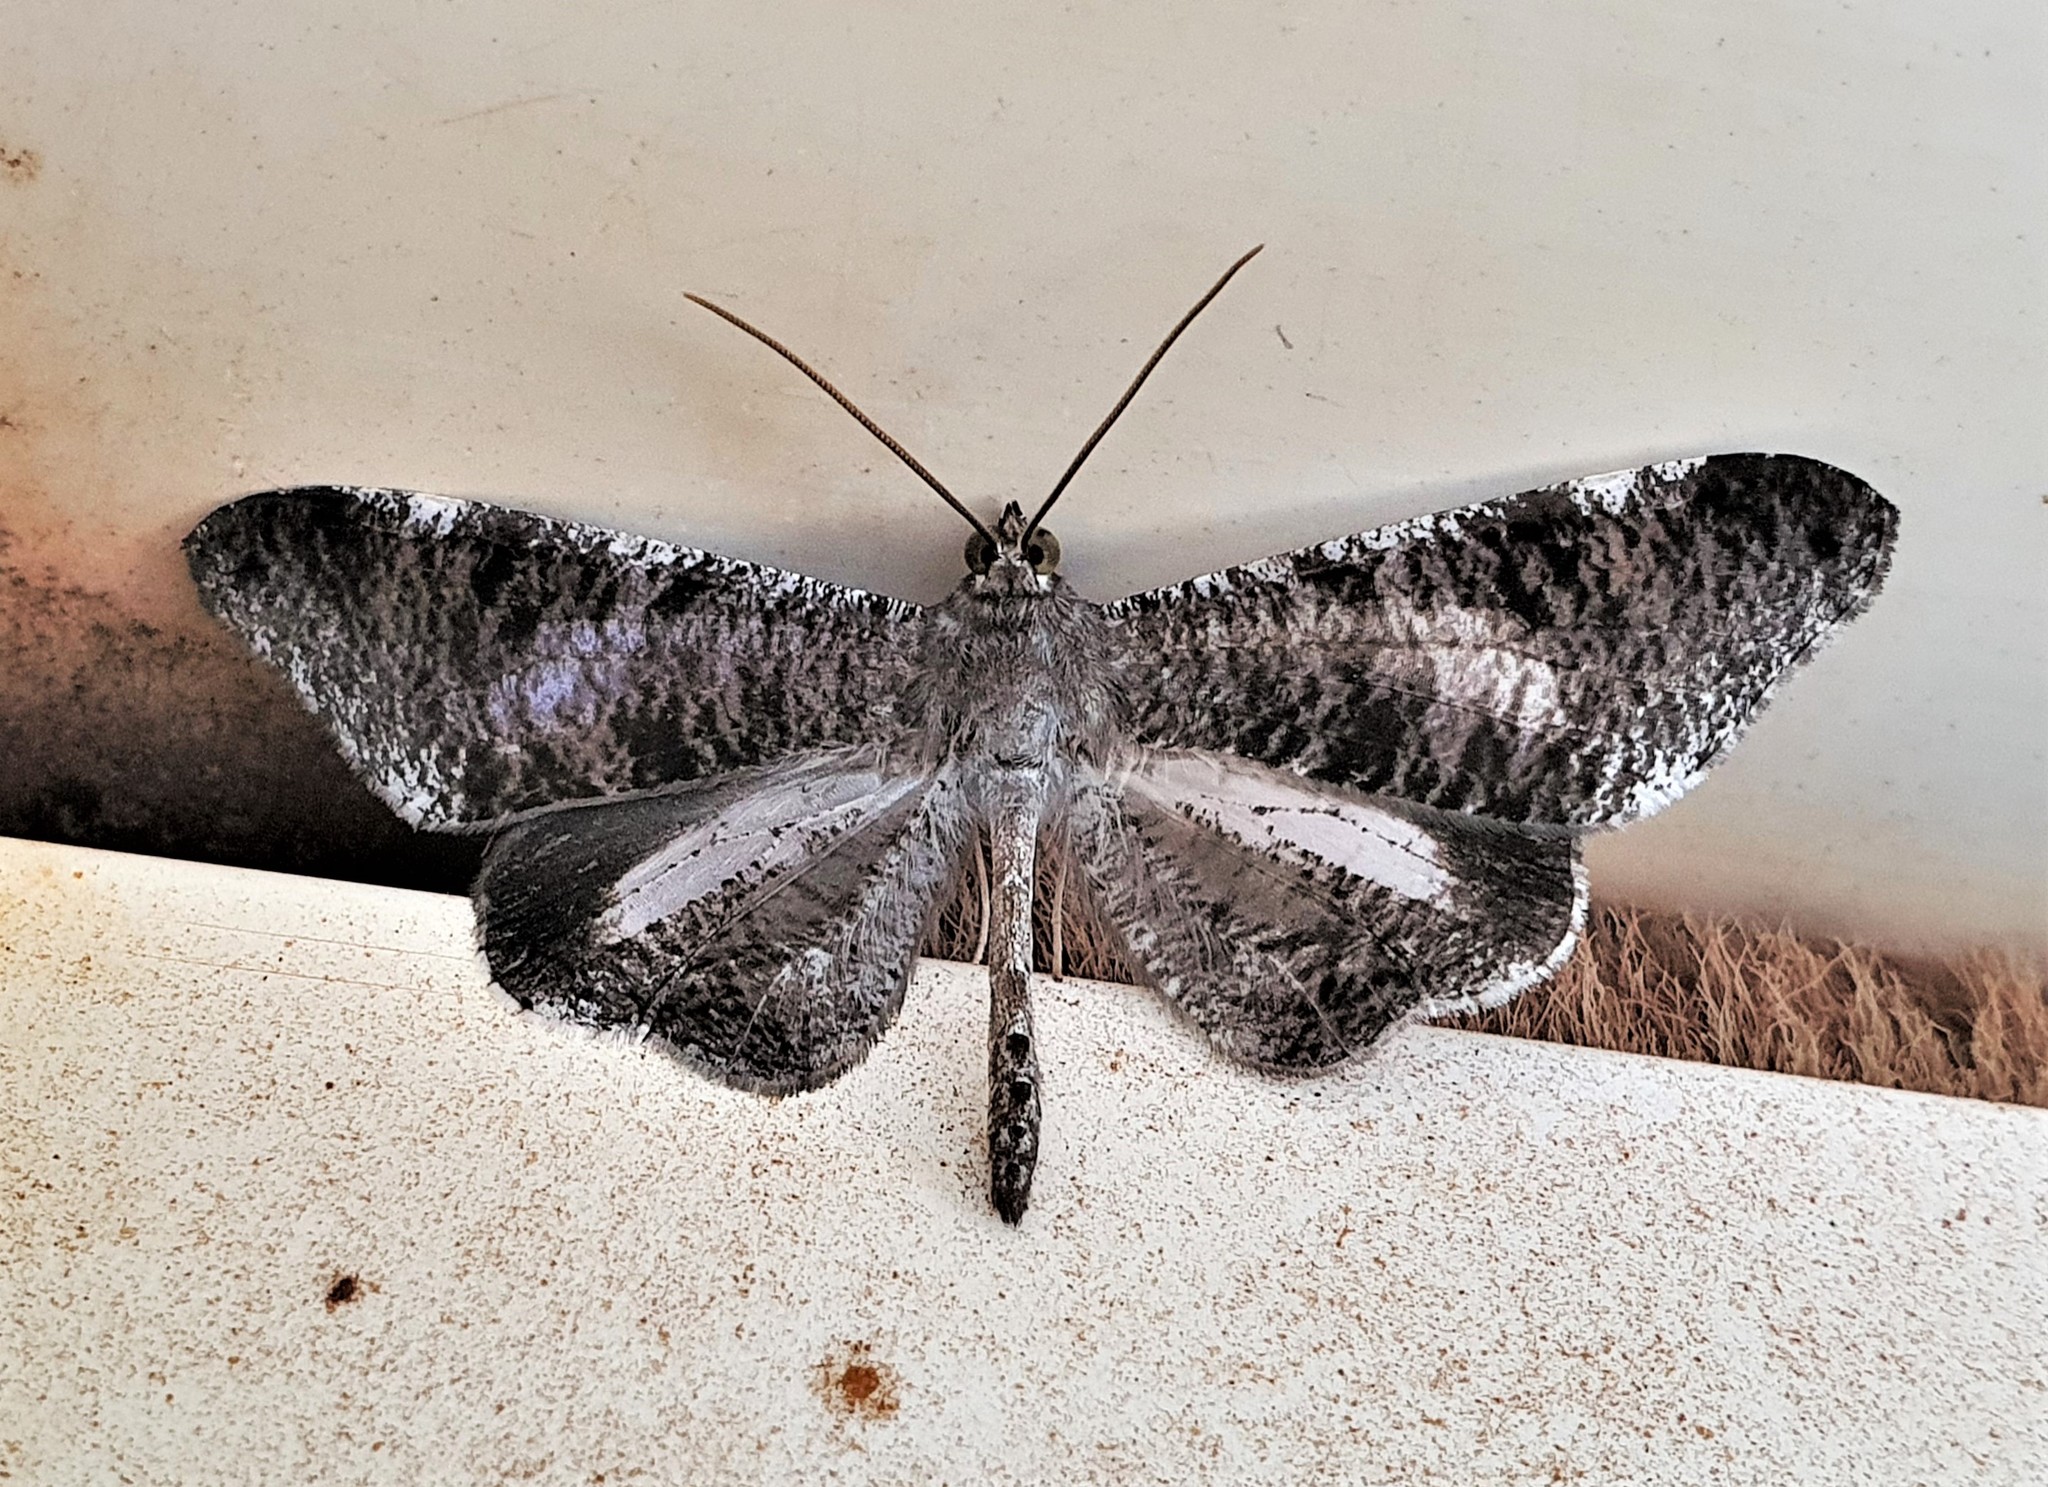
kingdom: Animalia
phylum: Arthropoda
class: Insecta
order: Lepidoptera
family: Hedylidae
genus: Macrosoma
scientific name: Macrosoma conifera
